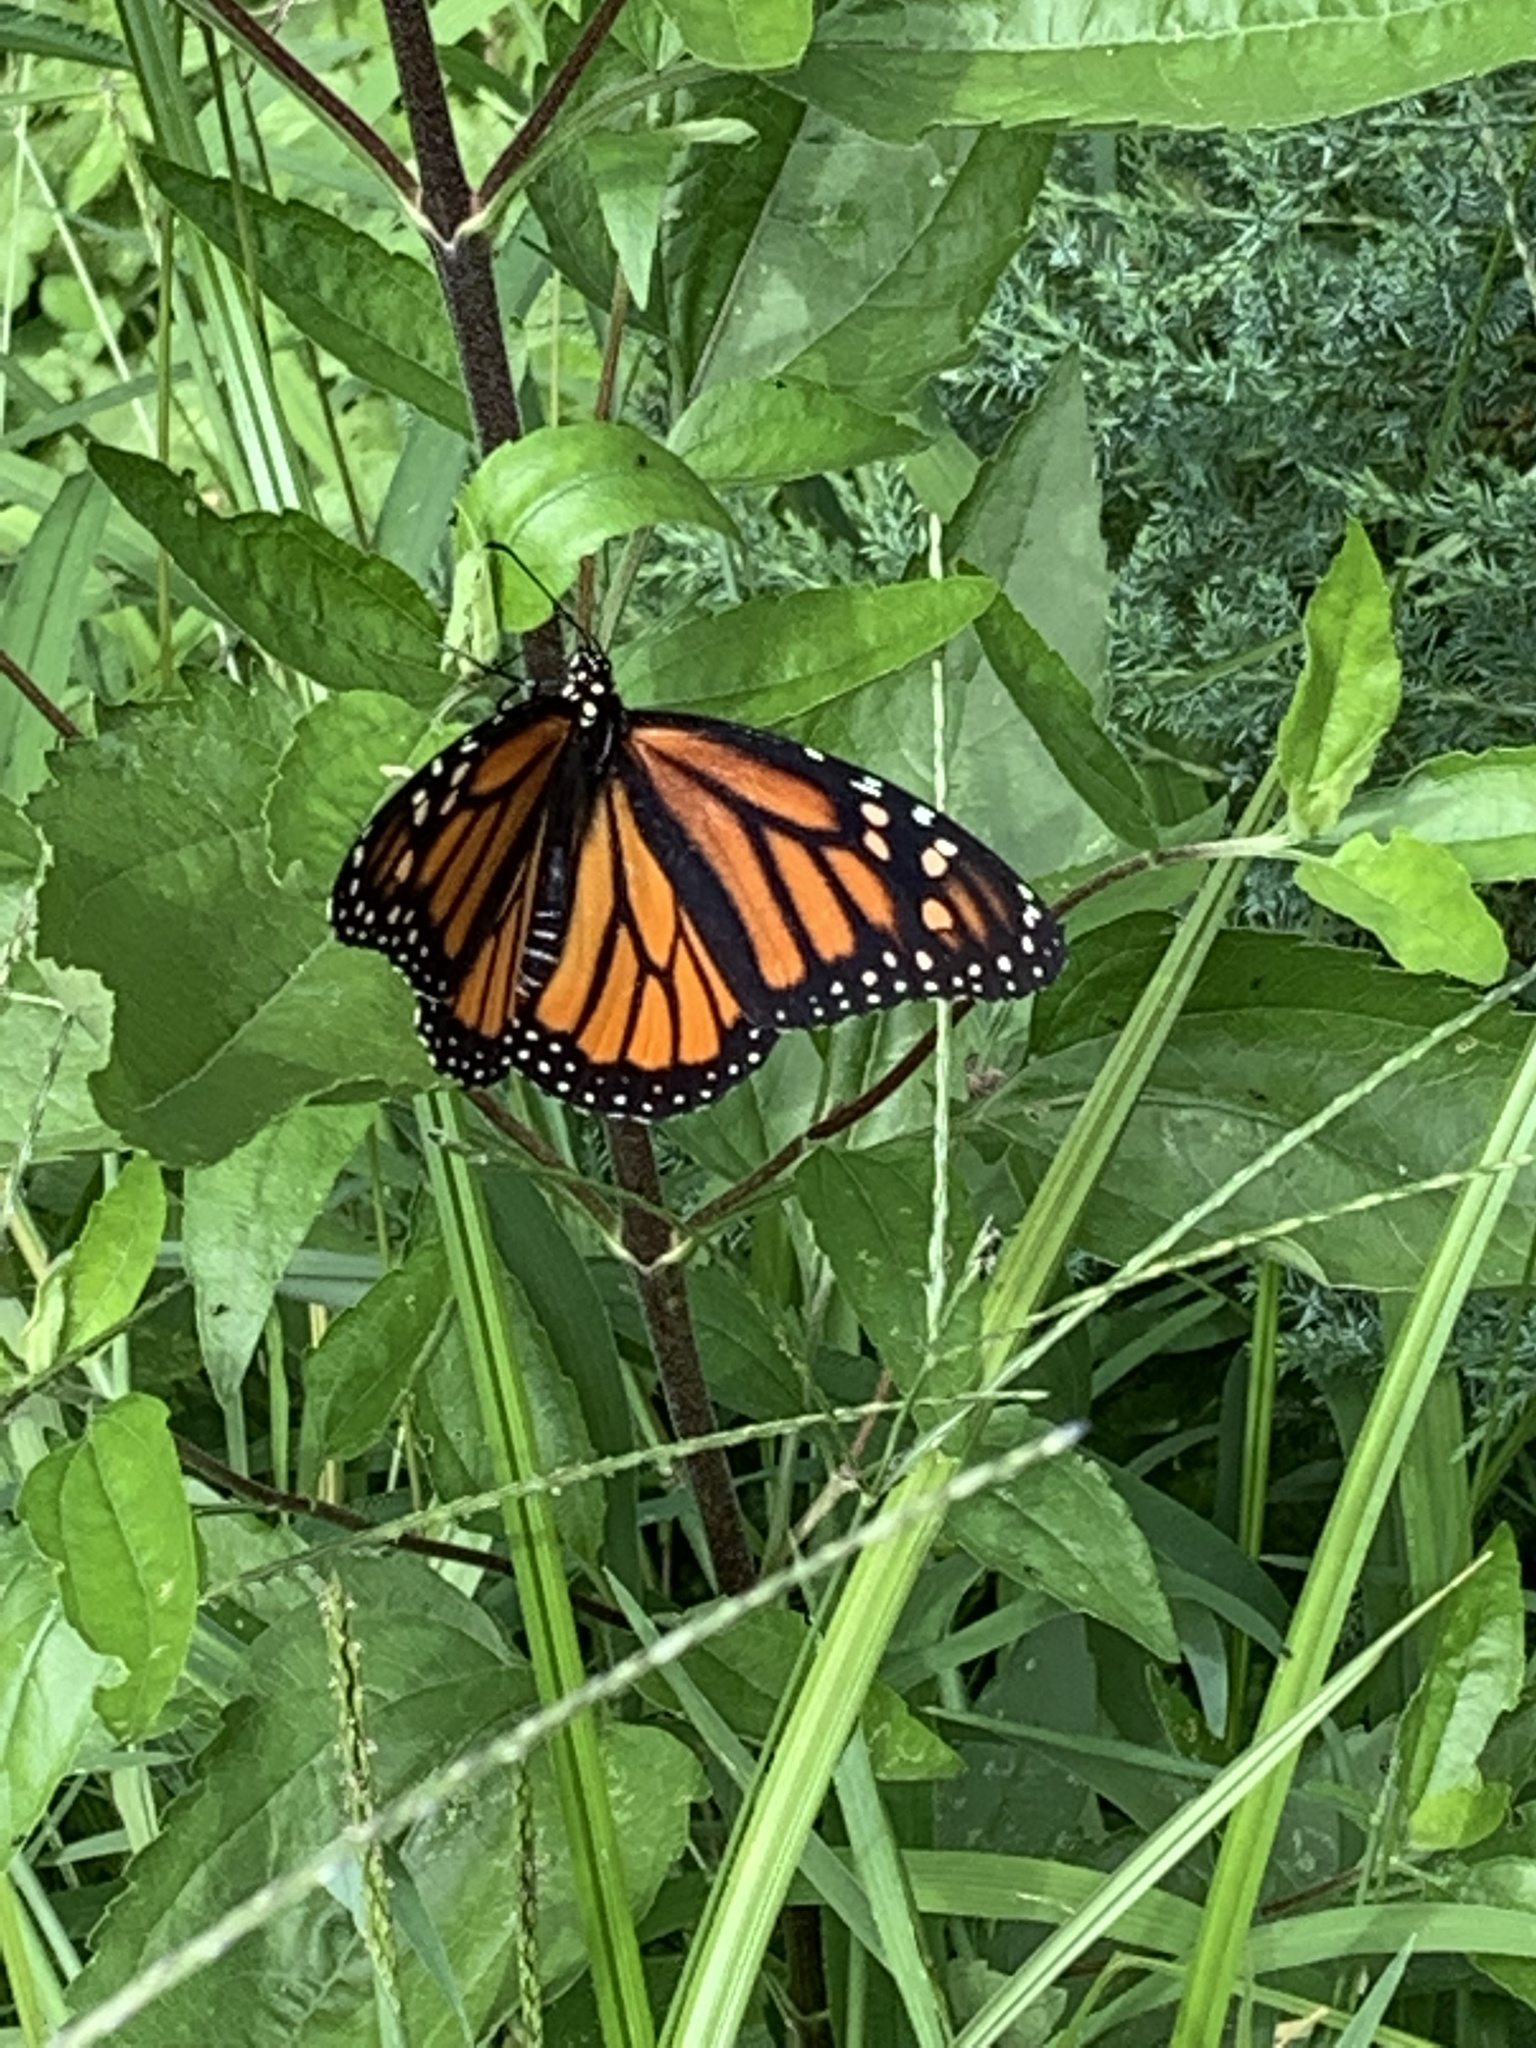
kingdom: Animalia
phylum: Arthropoda
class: Insecta
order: Lepidoptera
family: Nymphalidae
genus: Danaus
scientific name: Danaus plexippus
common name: Monarch
